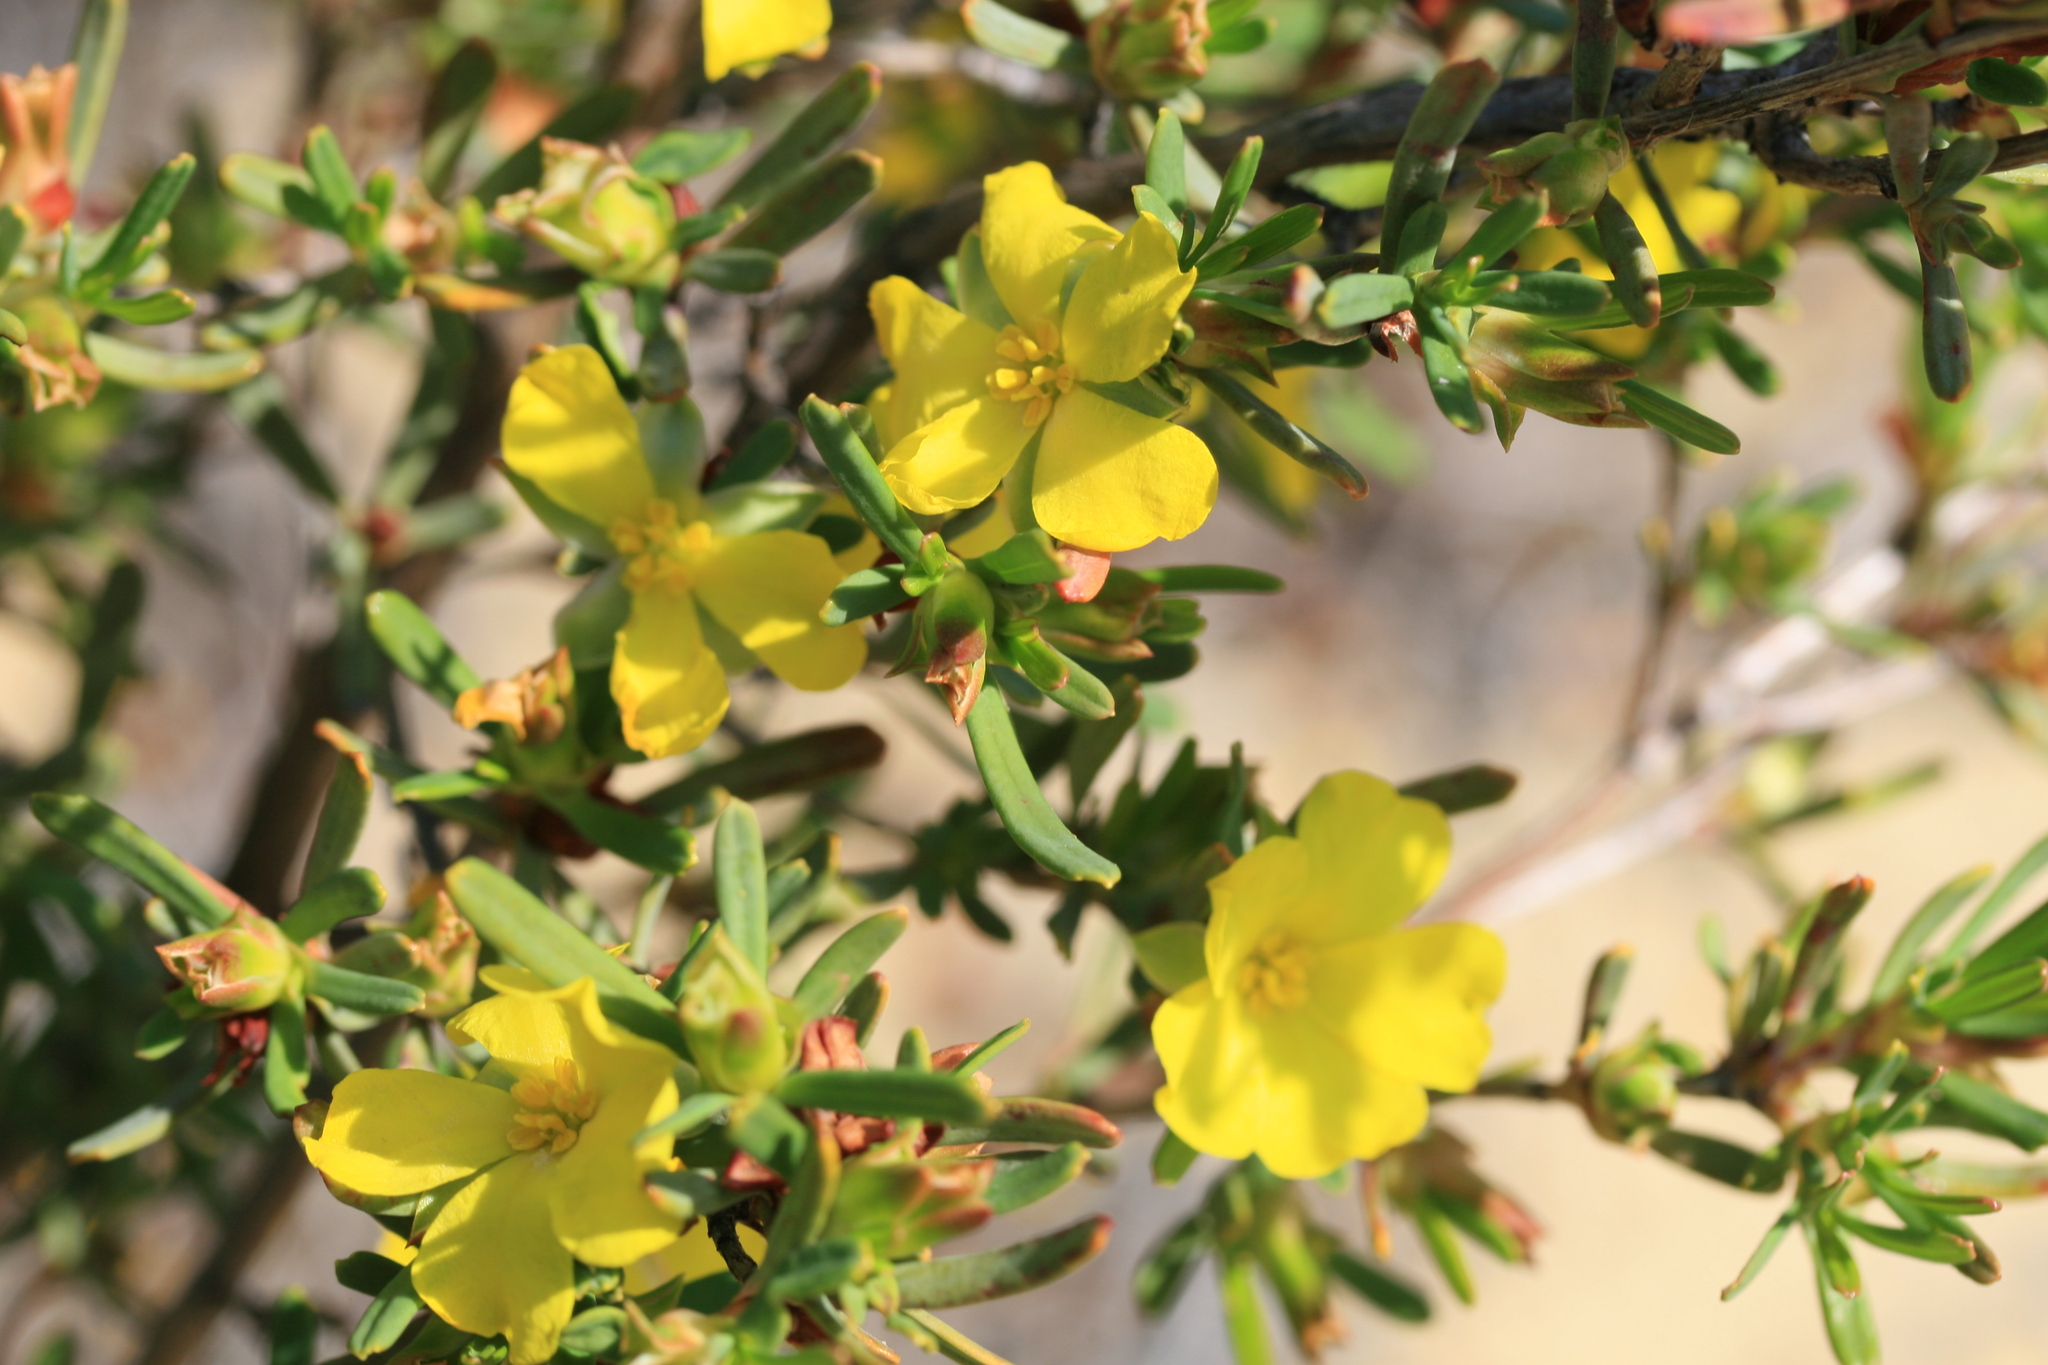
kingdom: Plantae
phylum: Tracheophyta
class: Magnoliopsida
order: Dilleniales
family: Dilleniaceae
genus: Hibbertia
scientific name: Hibbertia glabrisepala
